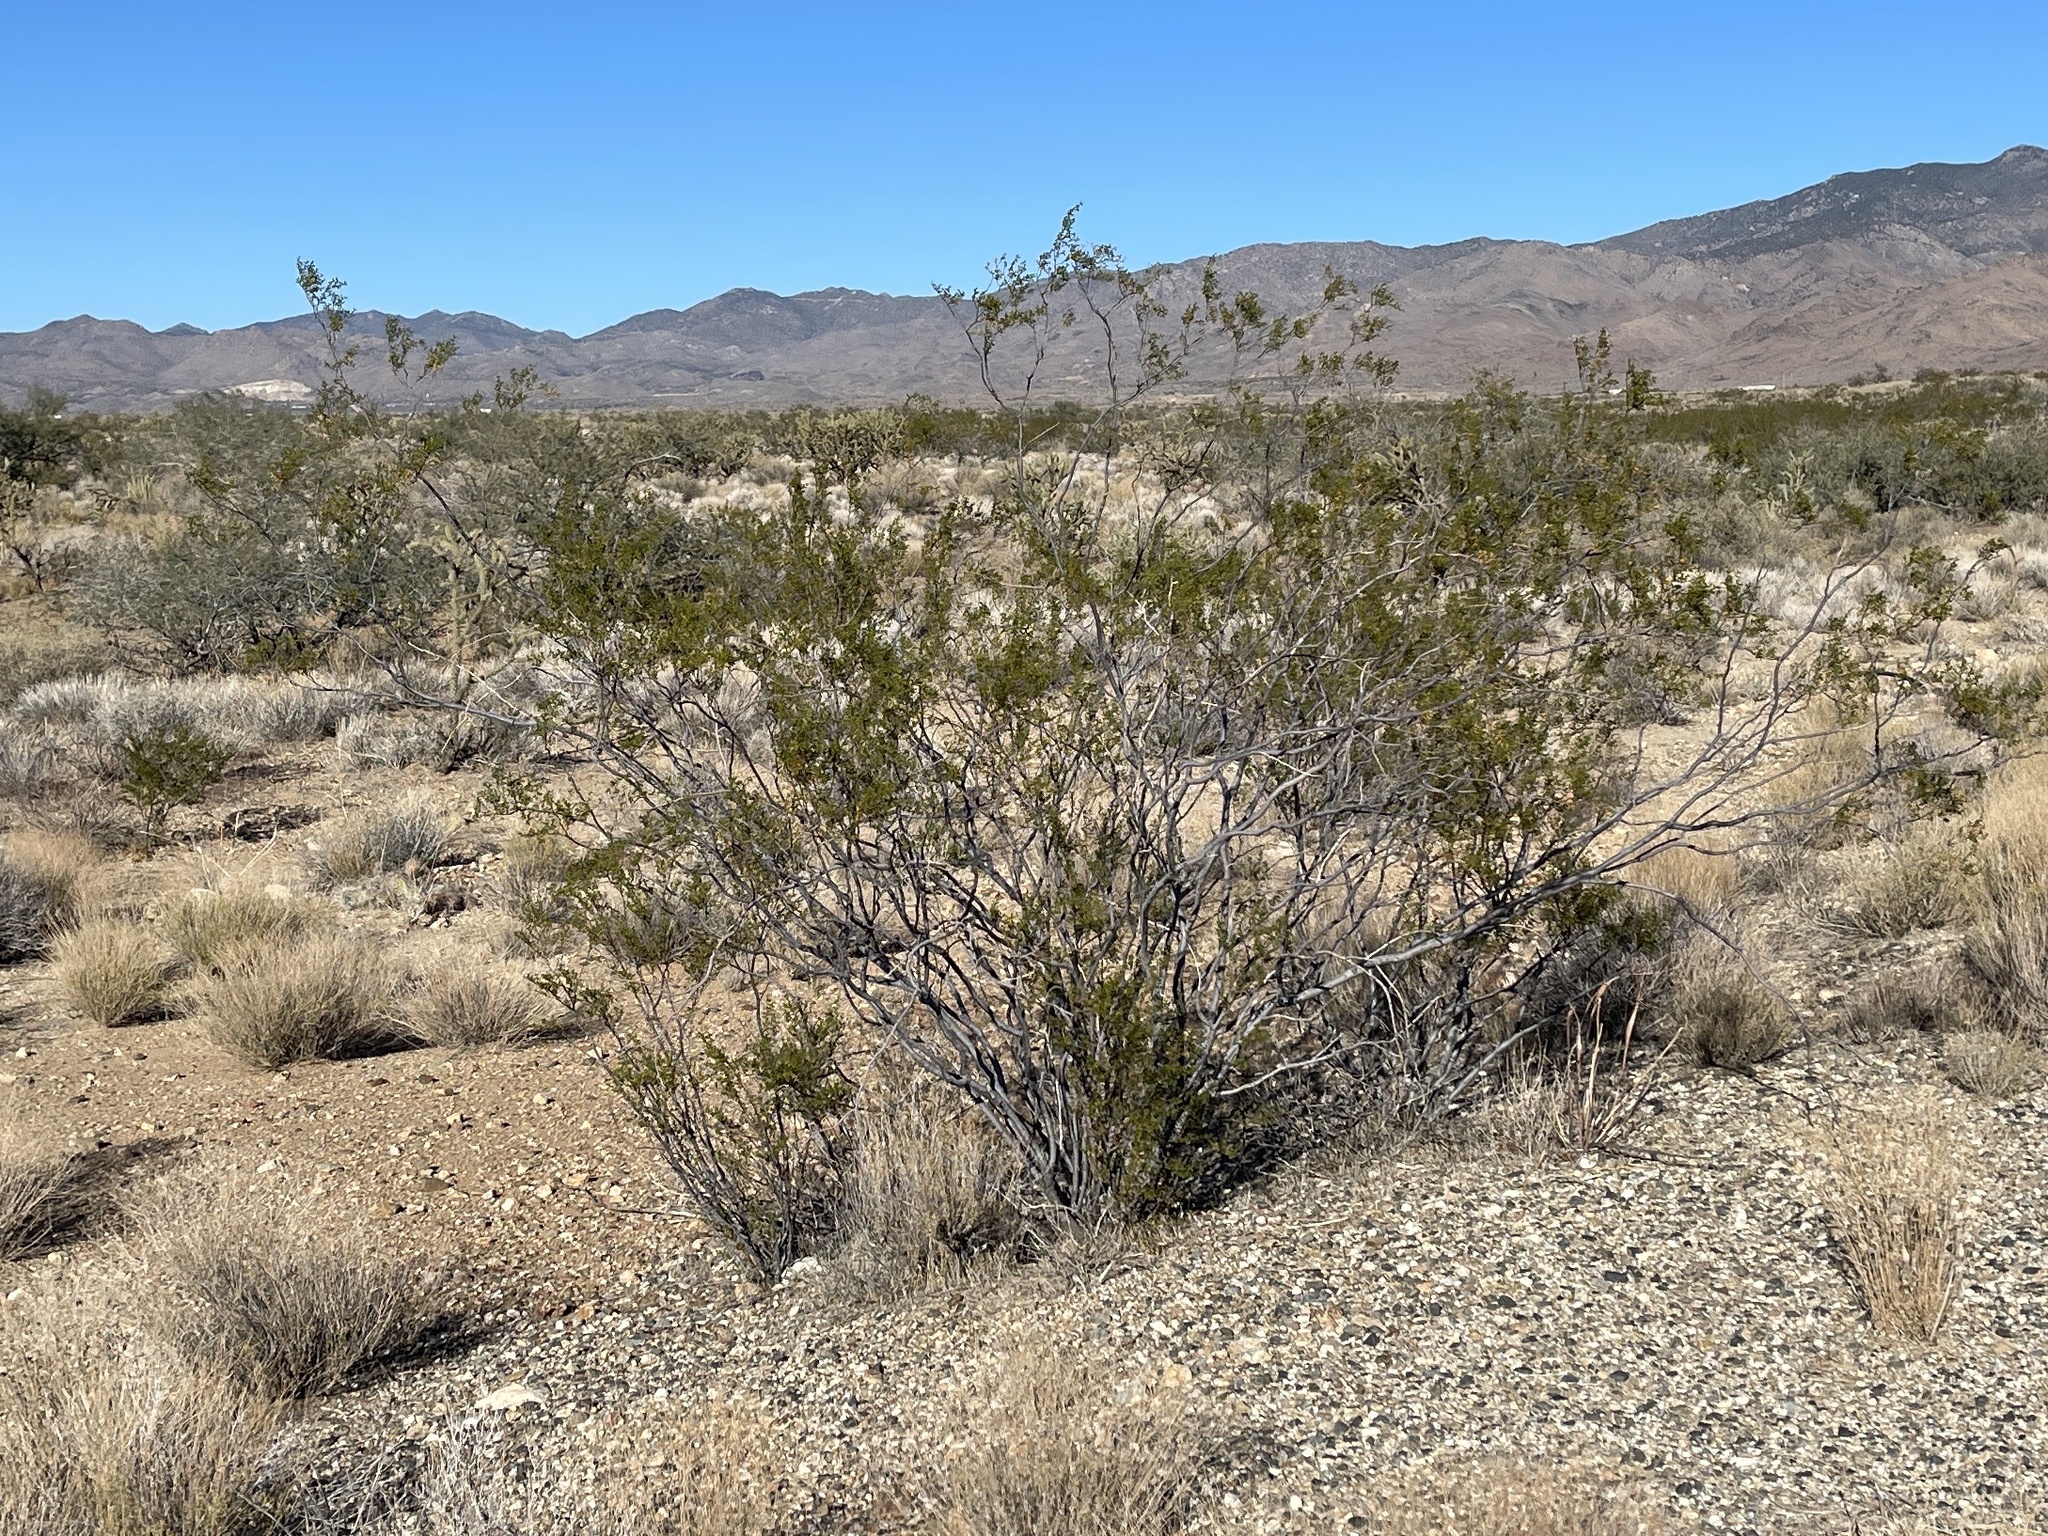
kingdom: Plantae
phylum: Tracheophyta
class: Magnoliopsida
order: Zygophyllales
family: Zygophyllaceae
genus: Larrea
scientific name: Larrea tridentata
